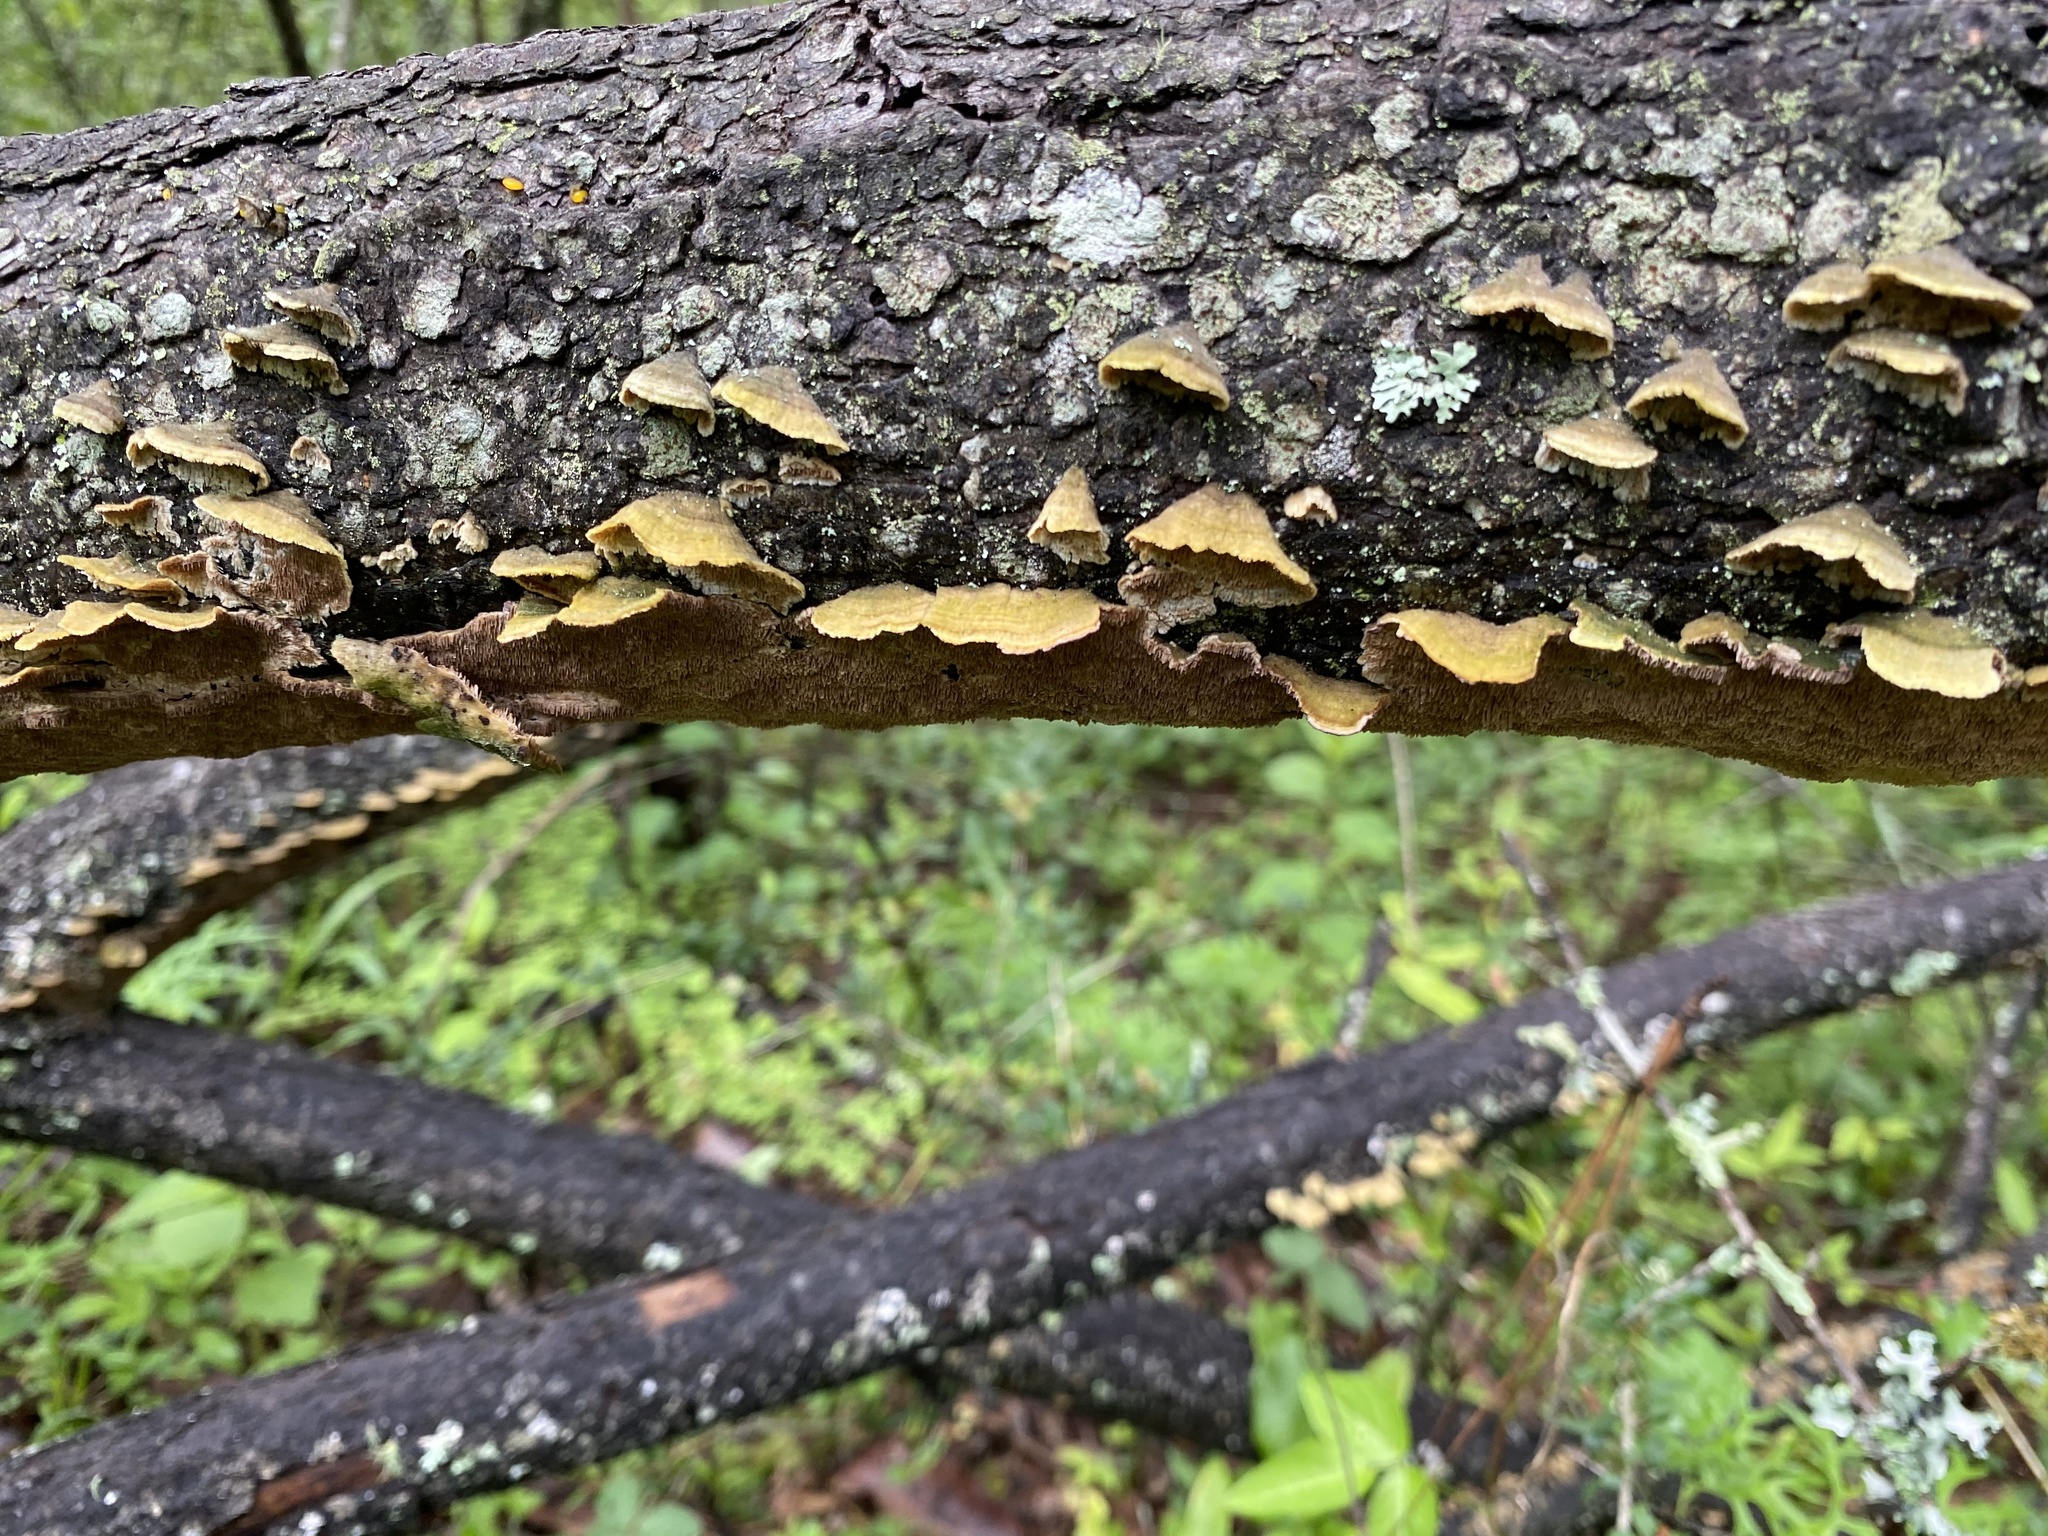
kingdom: Fungi
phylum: Basidiomycota
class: Agaricomycetes
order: Hymenochaetales
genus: Trichaptum
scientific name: Trichaptum fuscoviolaceum
